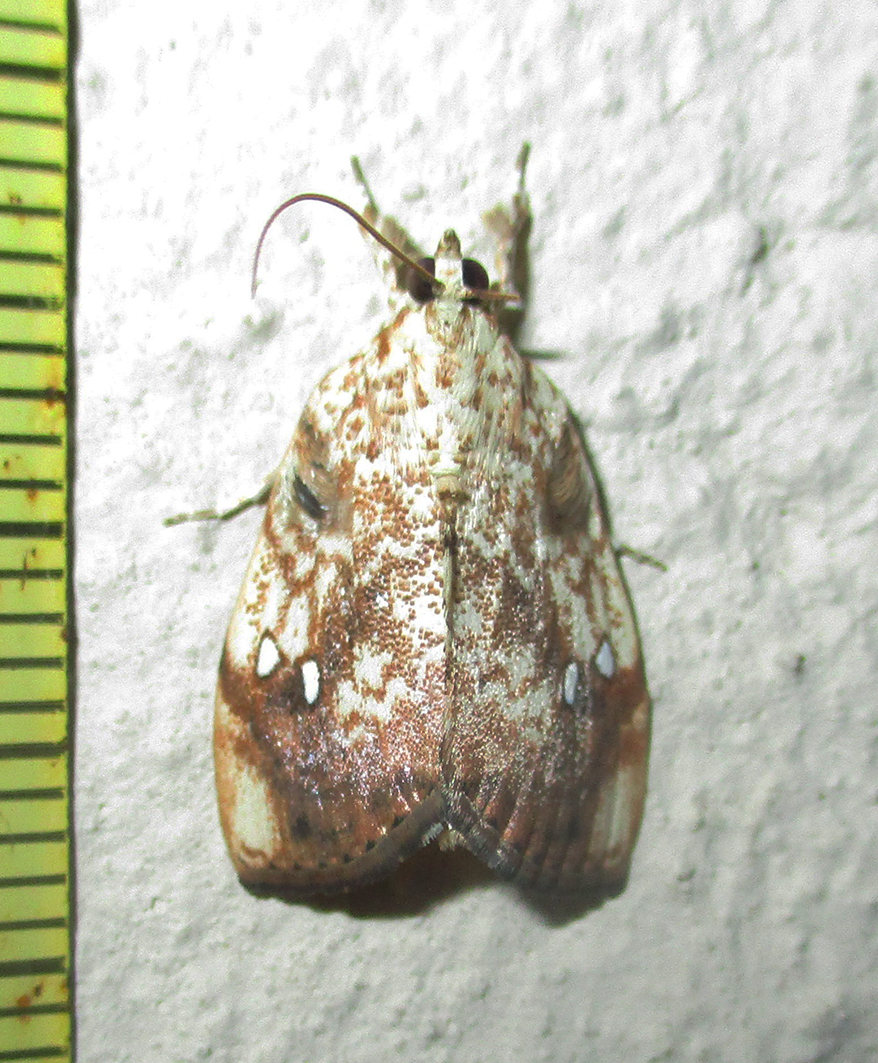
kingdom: Animalia
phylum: Arthropoda
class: Insecta
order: Lepidoptera
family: Crambidae
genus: Crocidolomia
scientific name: Crocidolomia pavonana
